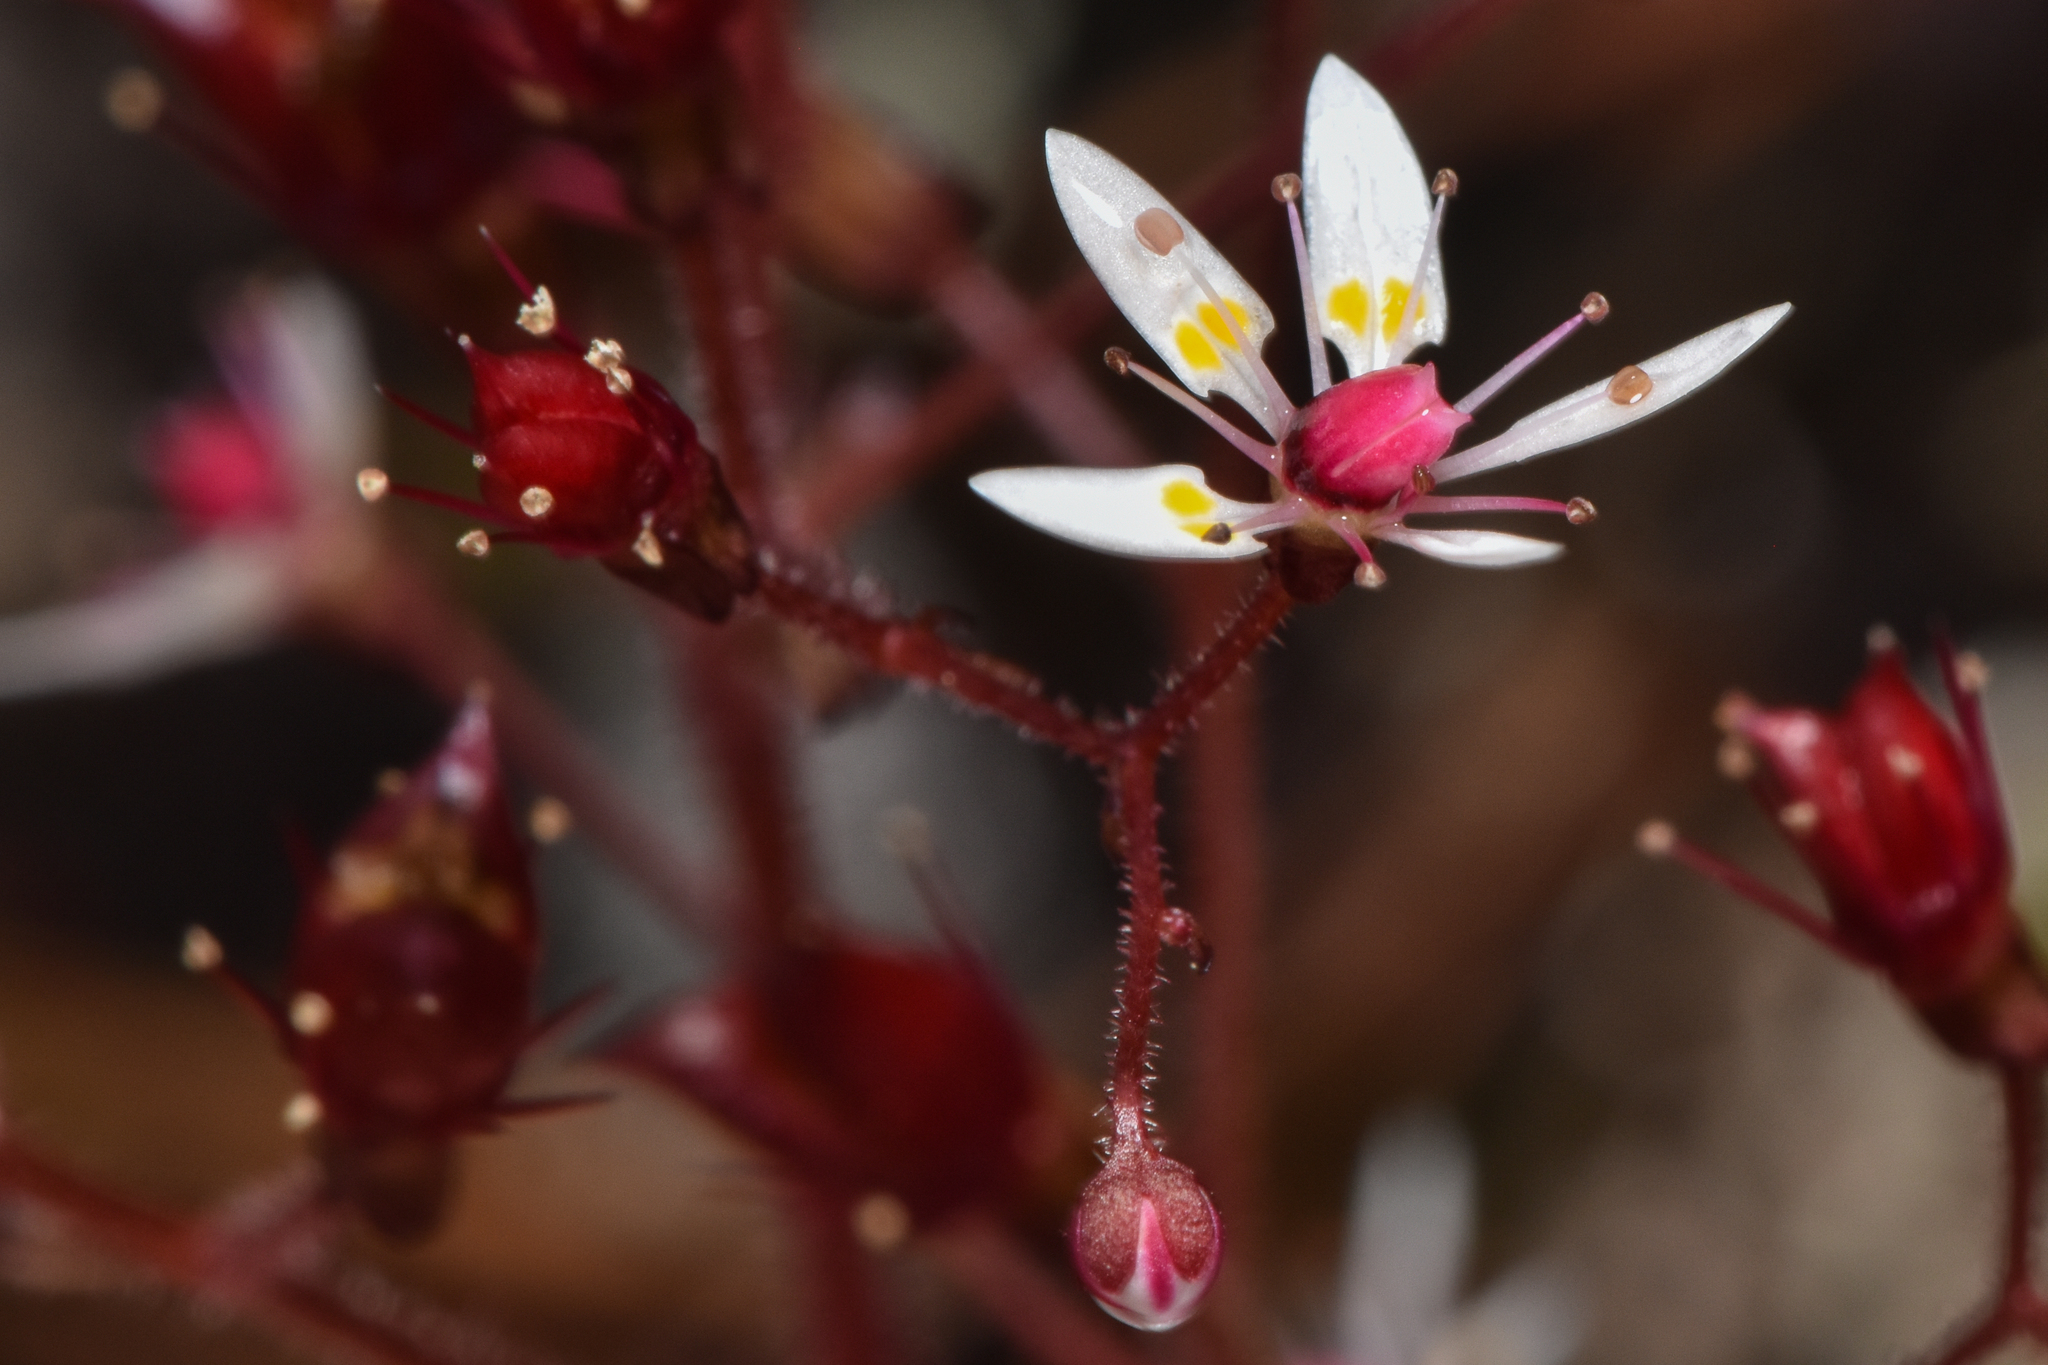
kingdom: Plantae
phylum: Tracheophyta
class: Magnoliopsida
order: Saxifragales
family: Saxifragaceae
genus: Micranthes
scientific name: Micranthes ferruginea
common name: Rusty saxifrage
